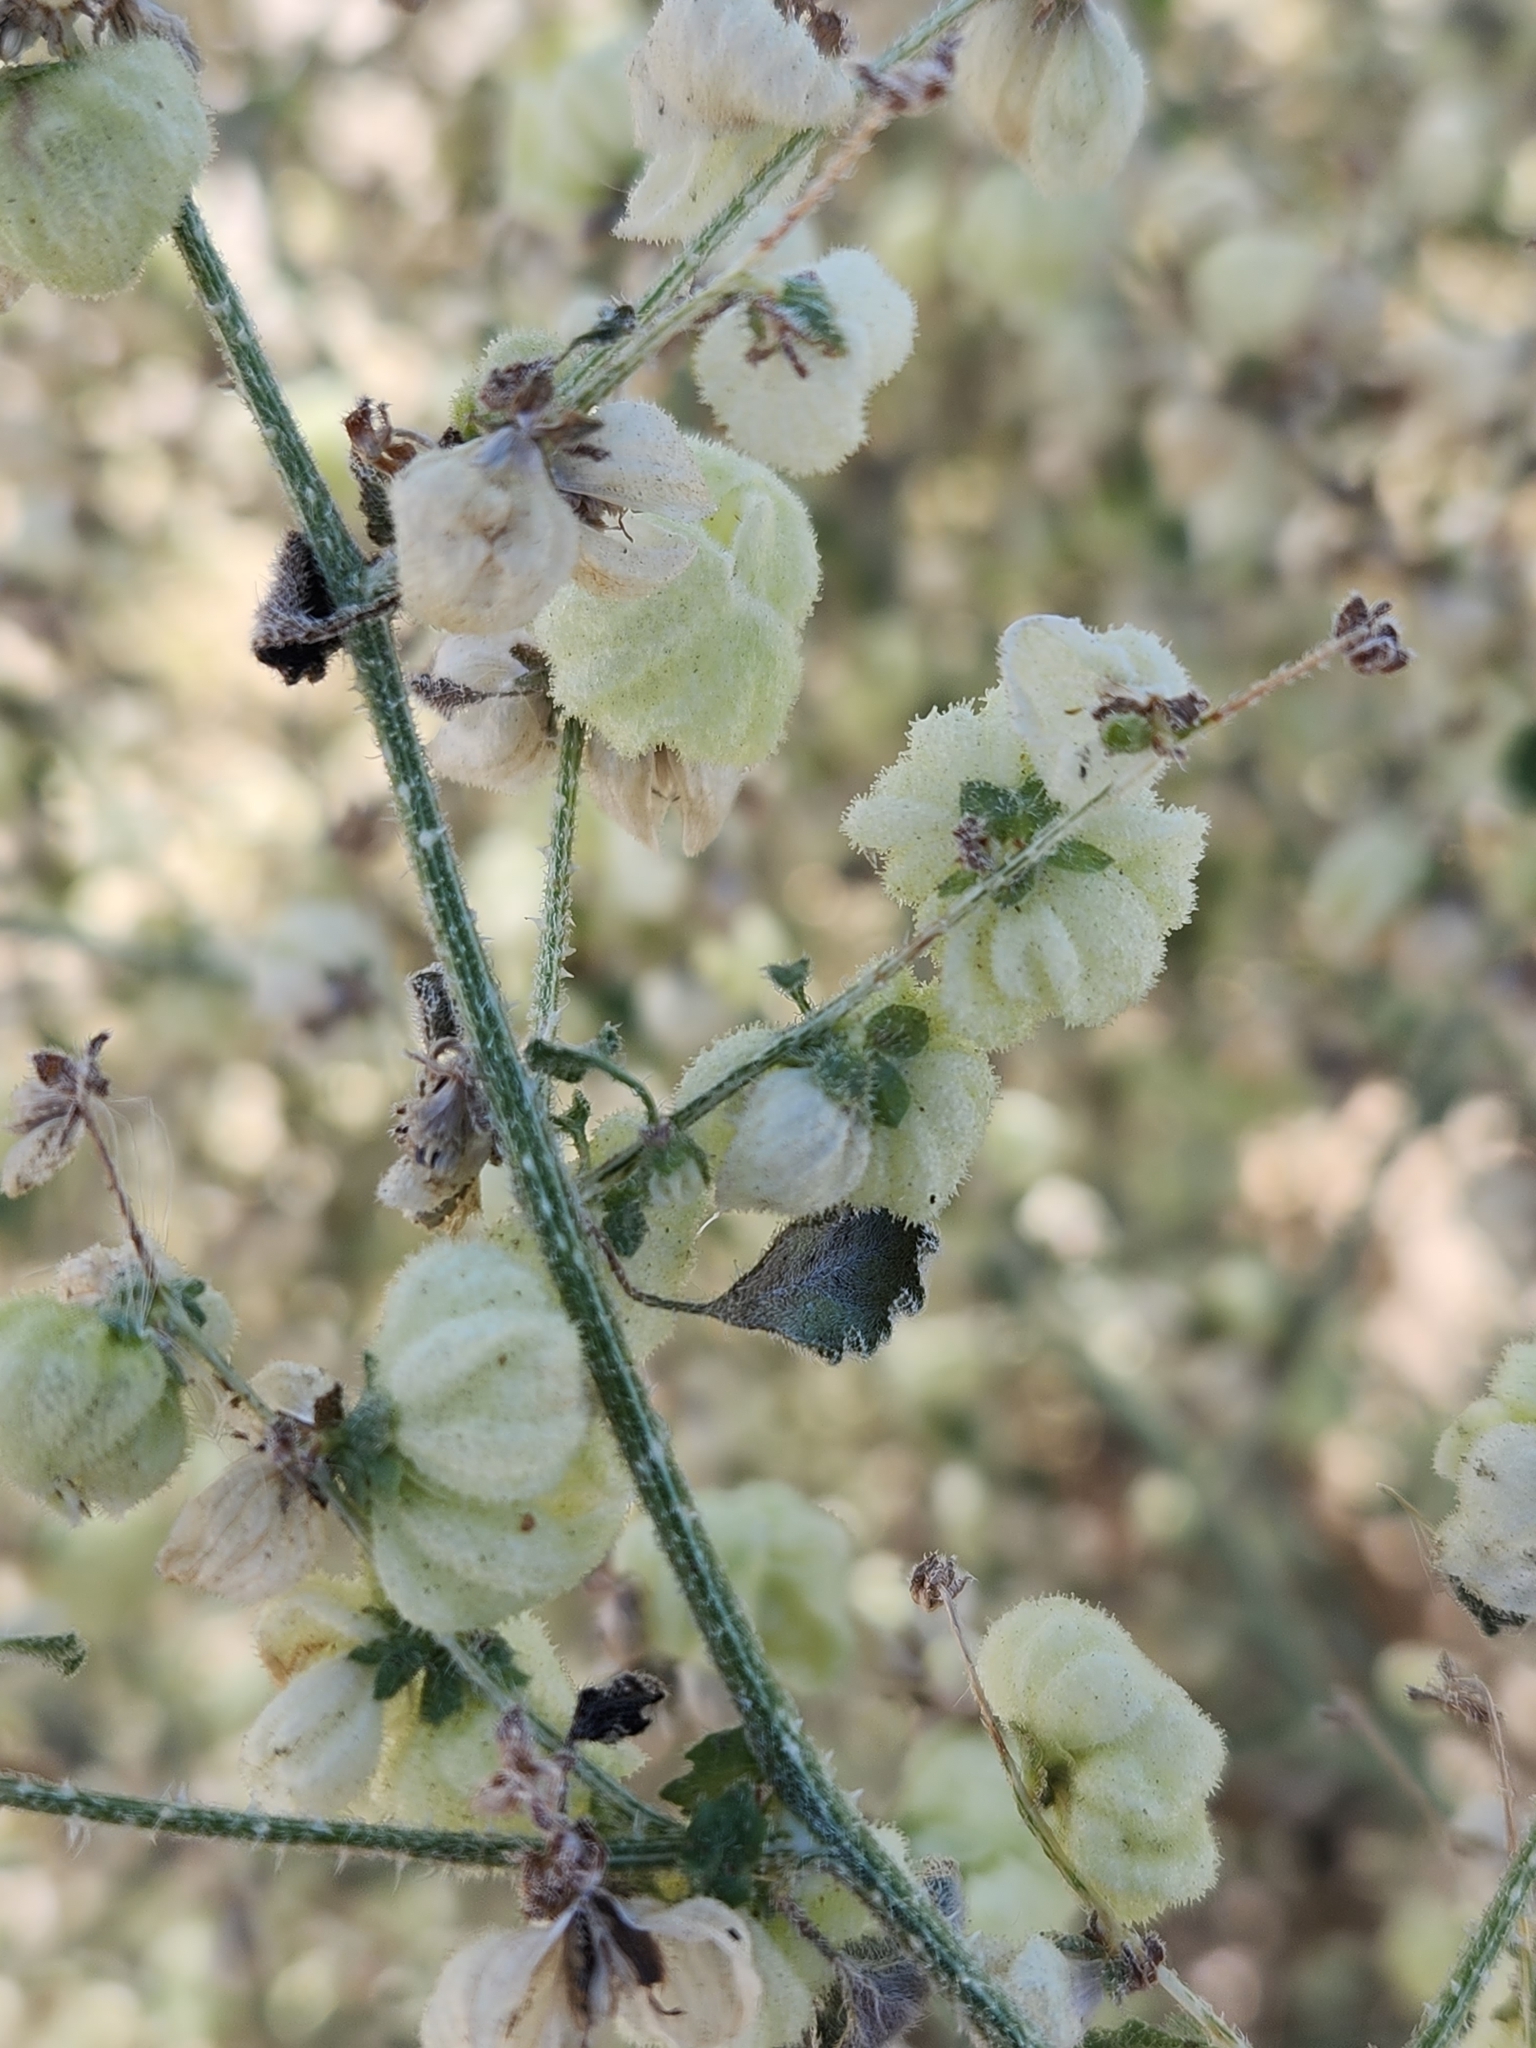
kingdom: Plantae
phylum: Tracheophyta
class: Magnoliopsida
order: Asterales
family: Asteraceae
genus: Dicoria
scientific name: Dicoria canescens
